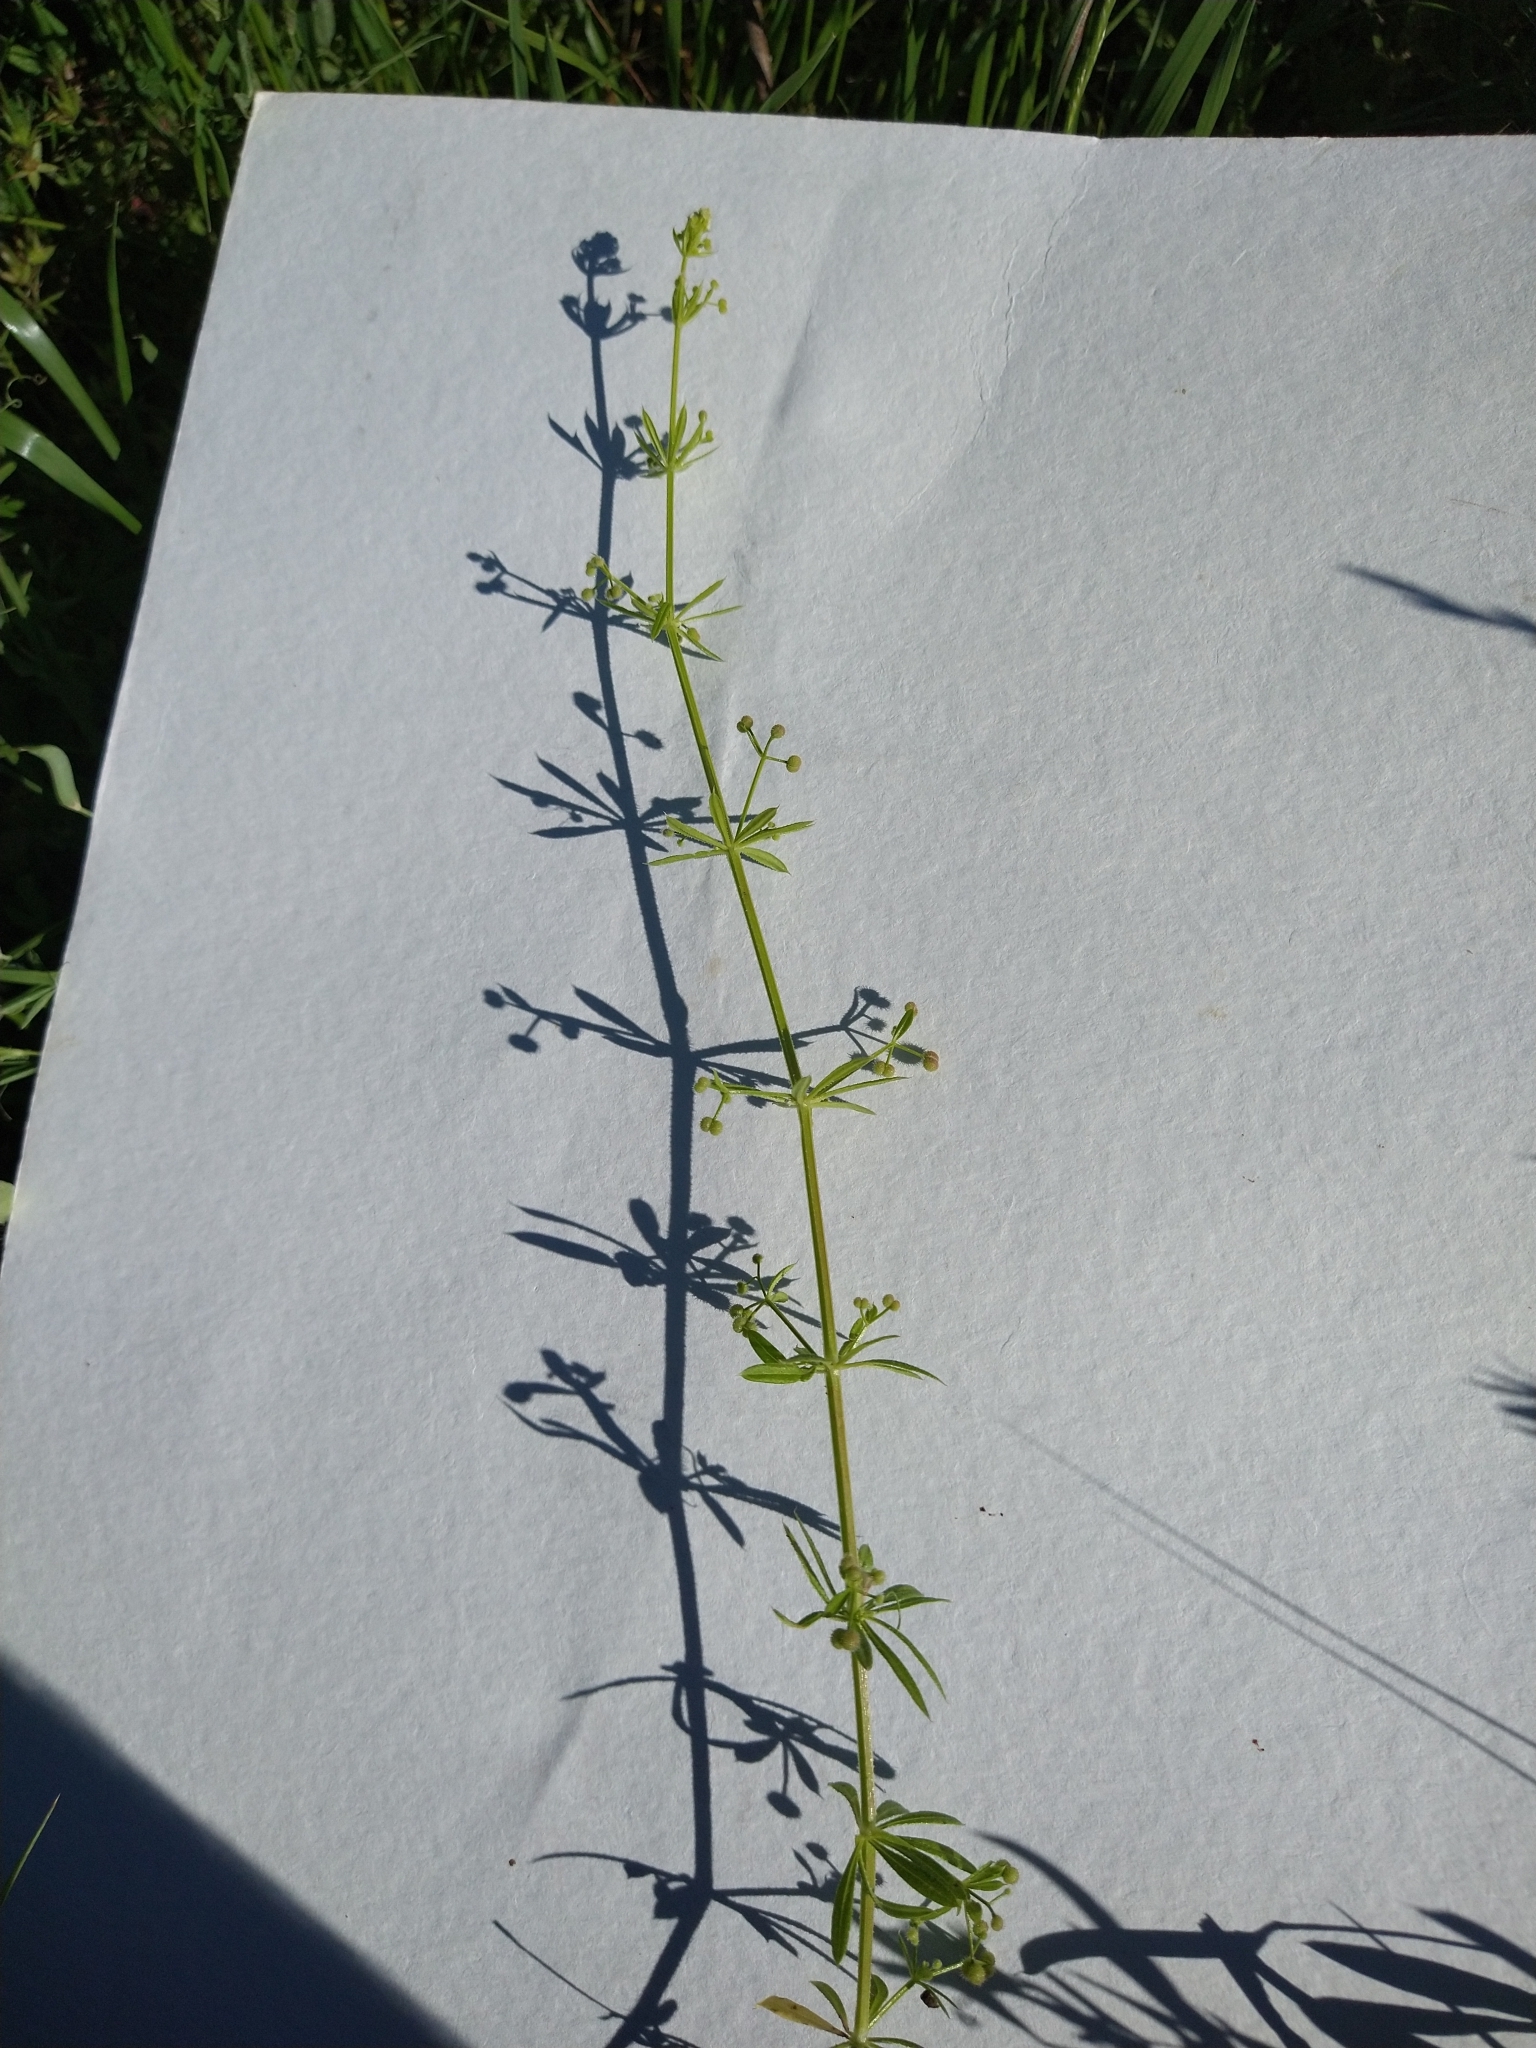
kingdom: Plantae
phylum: Tracheophyta
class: Magnoliopsida
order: Gentianales
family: Rubiaceae
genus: Galium
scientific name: Galium aparine
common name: Cleavers
